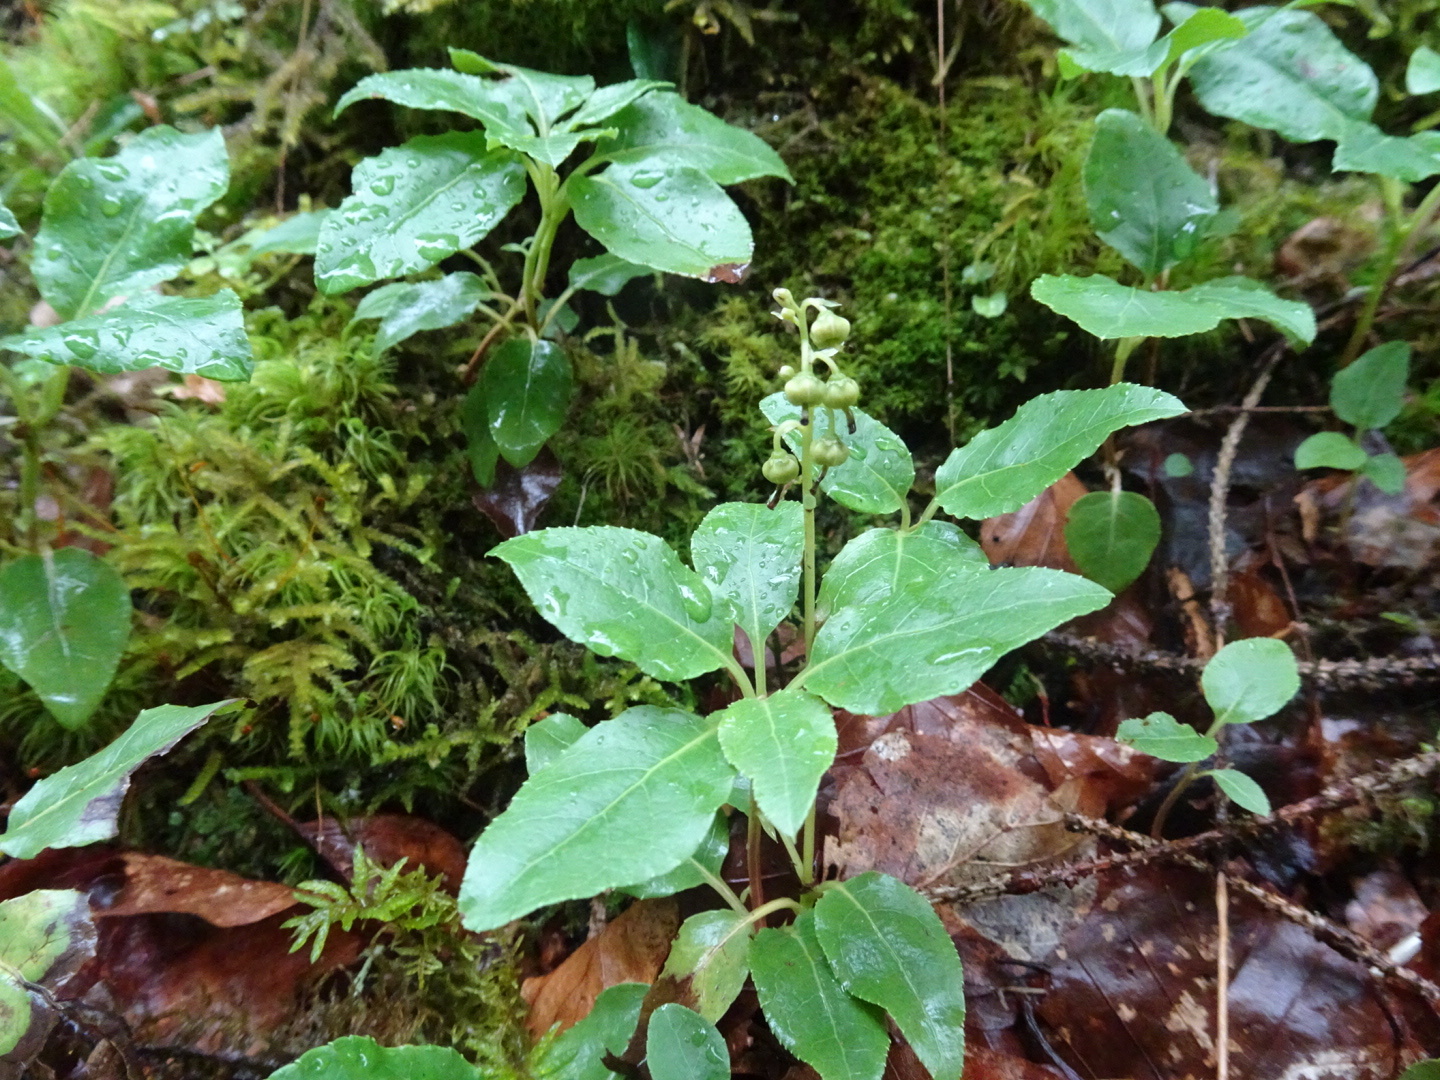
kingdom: Plantae
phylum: Tracheophyta
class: Magnoliopsida
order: Ericales
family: Ericaceae
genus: Orthilia
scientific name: Orthilia secunda
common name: One-sided orthilia
